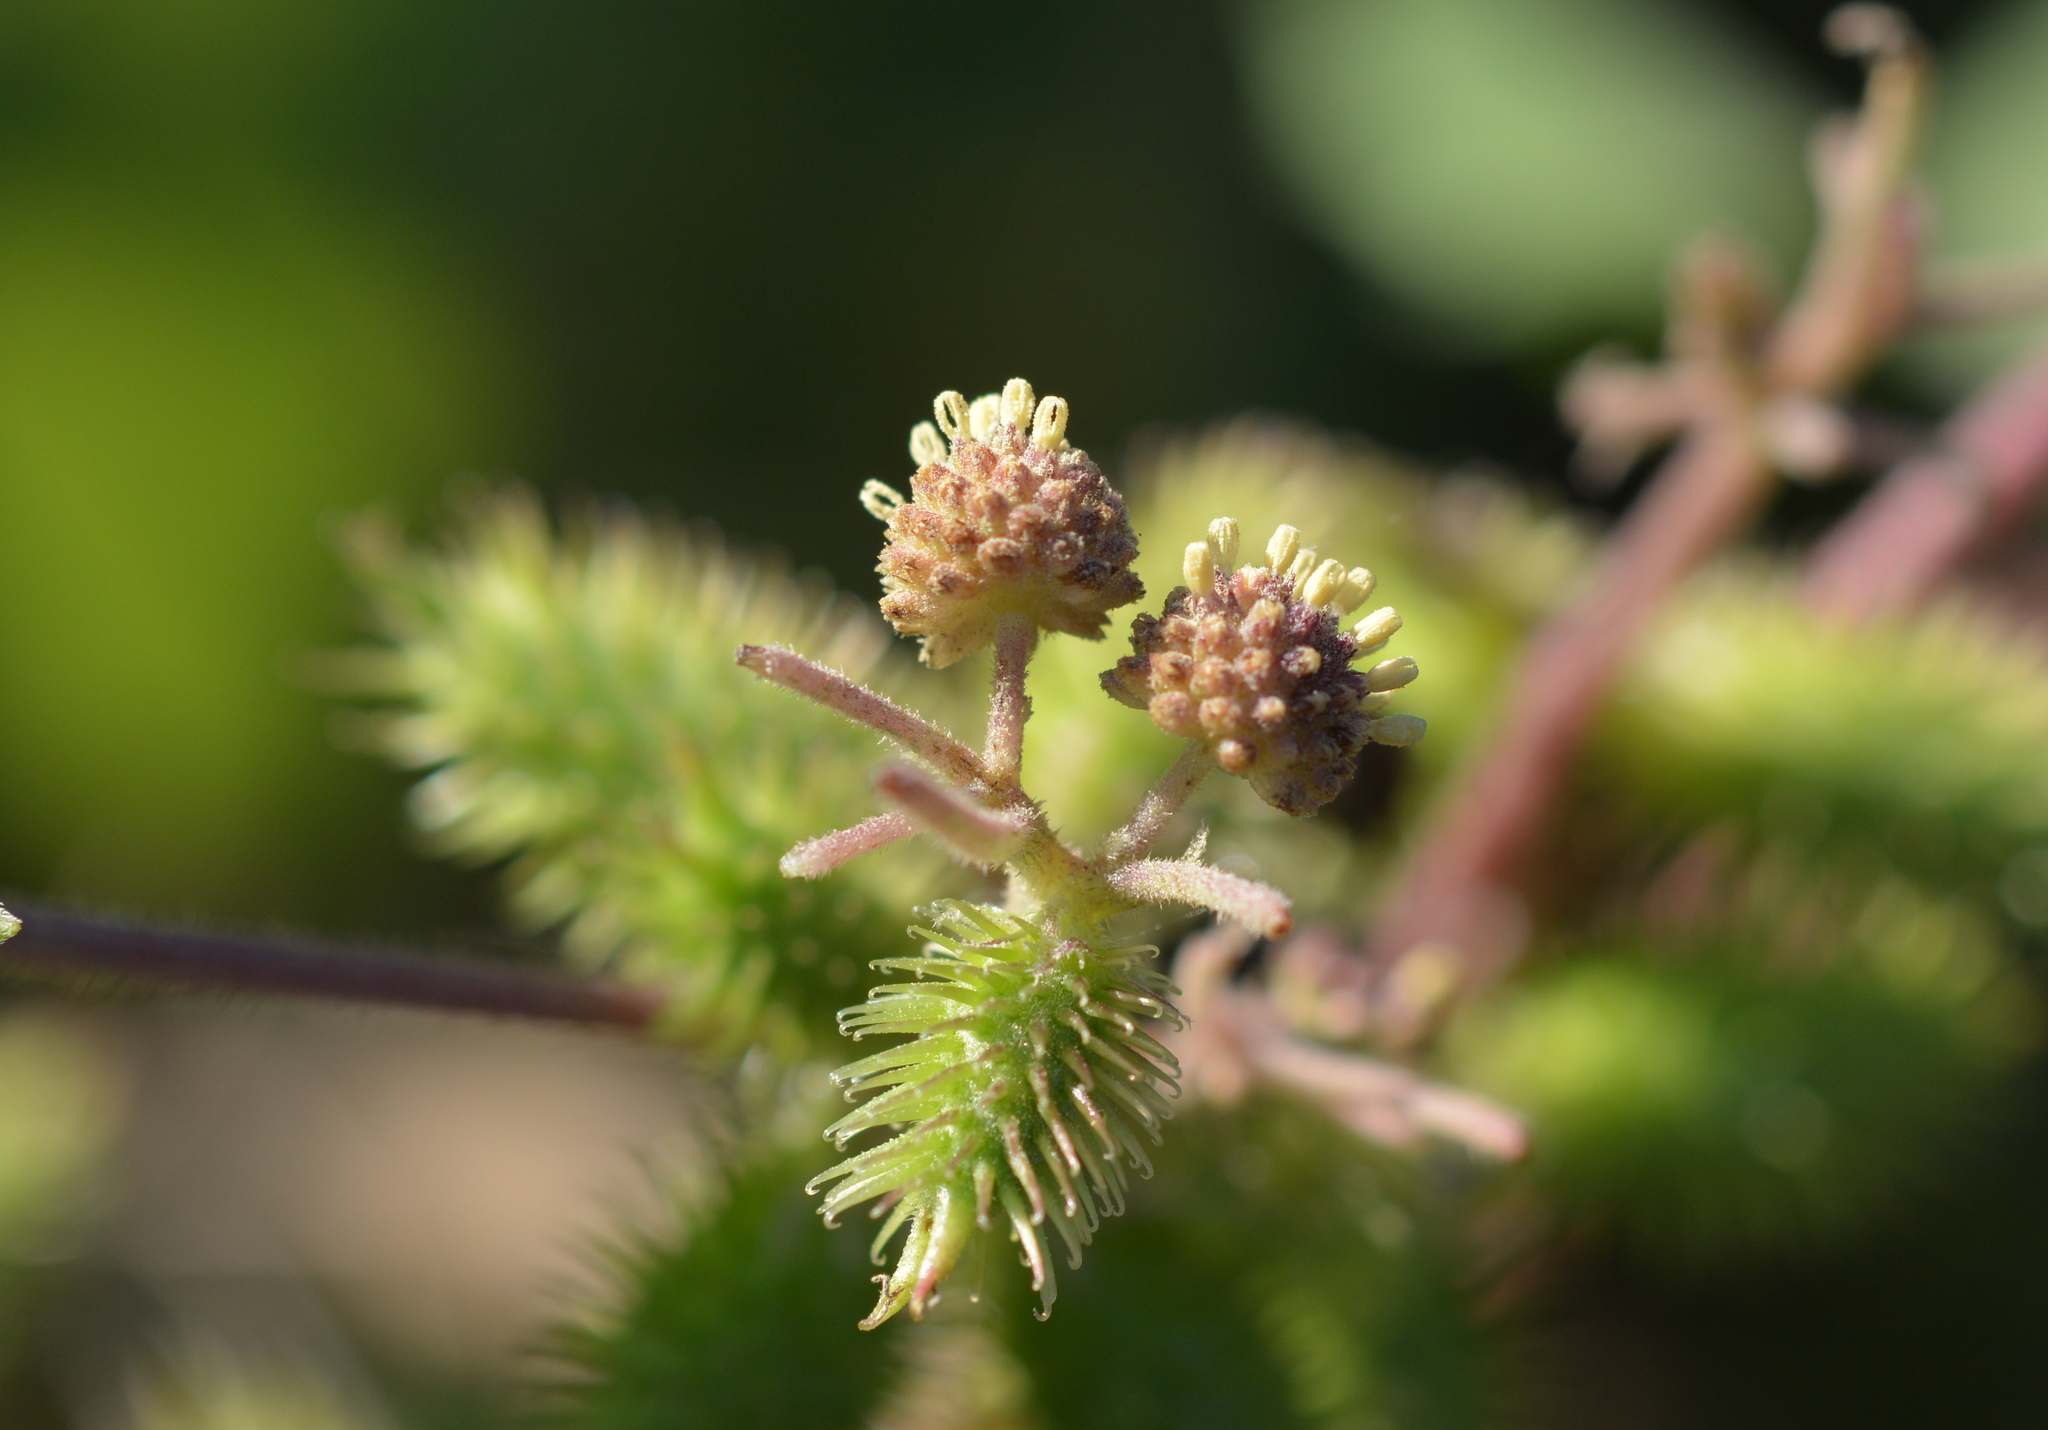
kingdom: Plantae
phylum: Tracheophyta
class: Magnoliopsida
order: Asterales
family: Asteraceae
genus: Xanthium
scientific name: Xanthium strumarium
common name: Rough cocklebur
